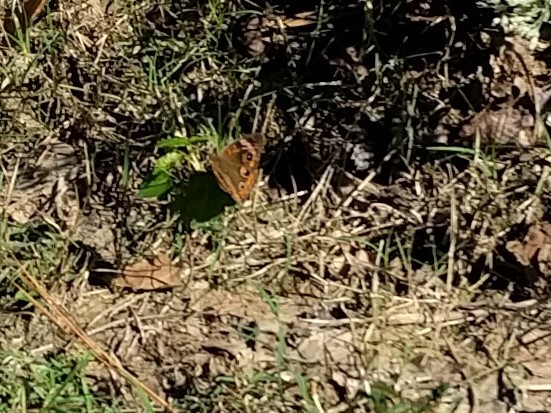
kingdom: Animalia
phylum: Arthropoda
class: Insecta
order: Lepidoptera
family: Nymphalidae
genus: Junonia
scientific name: Junonia coenia
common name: Common buckeye
